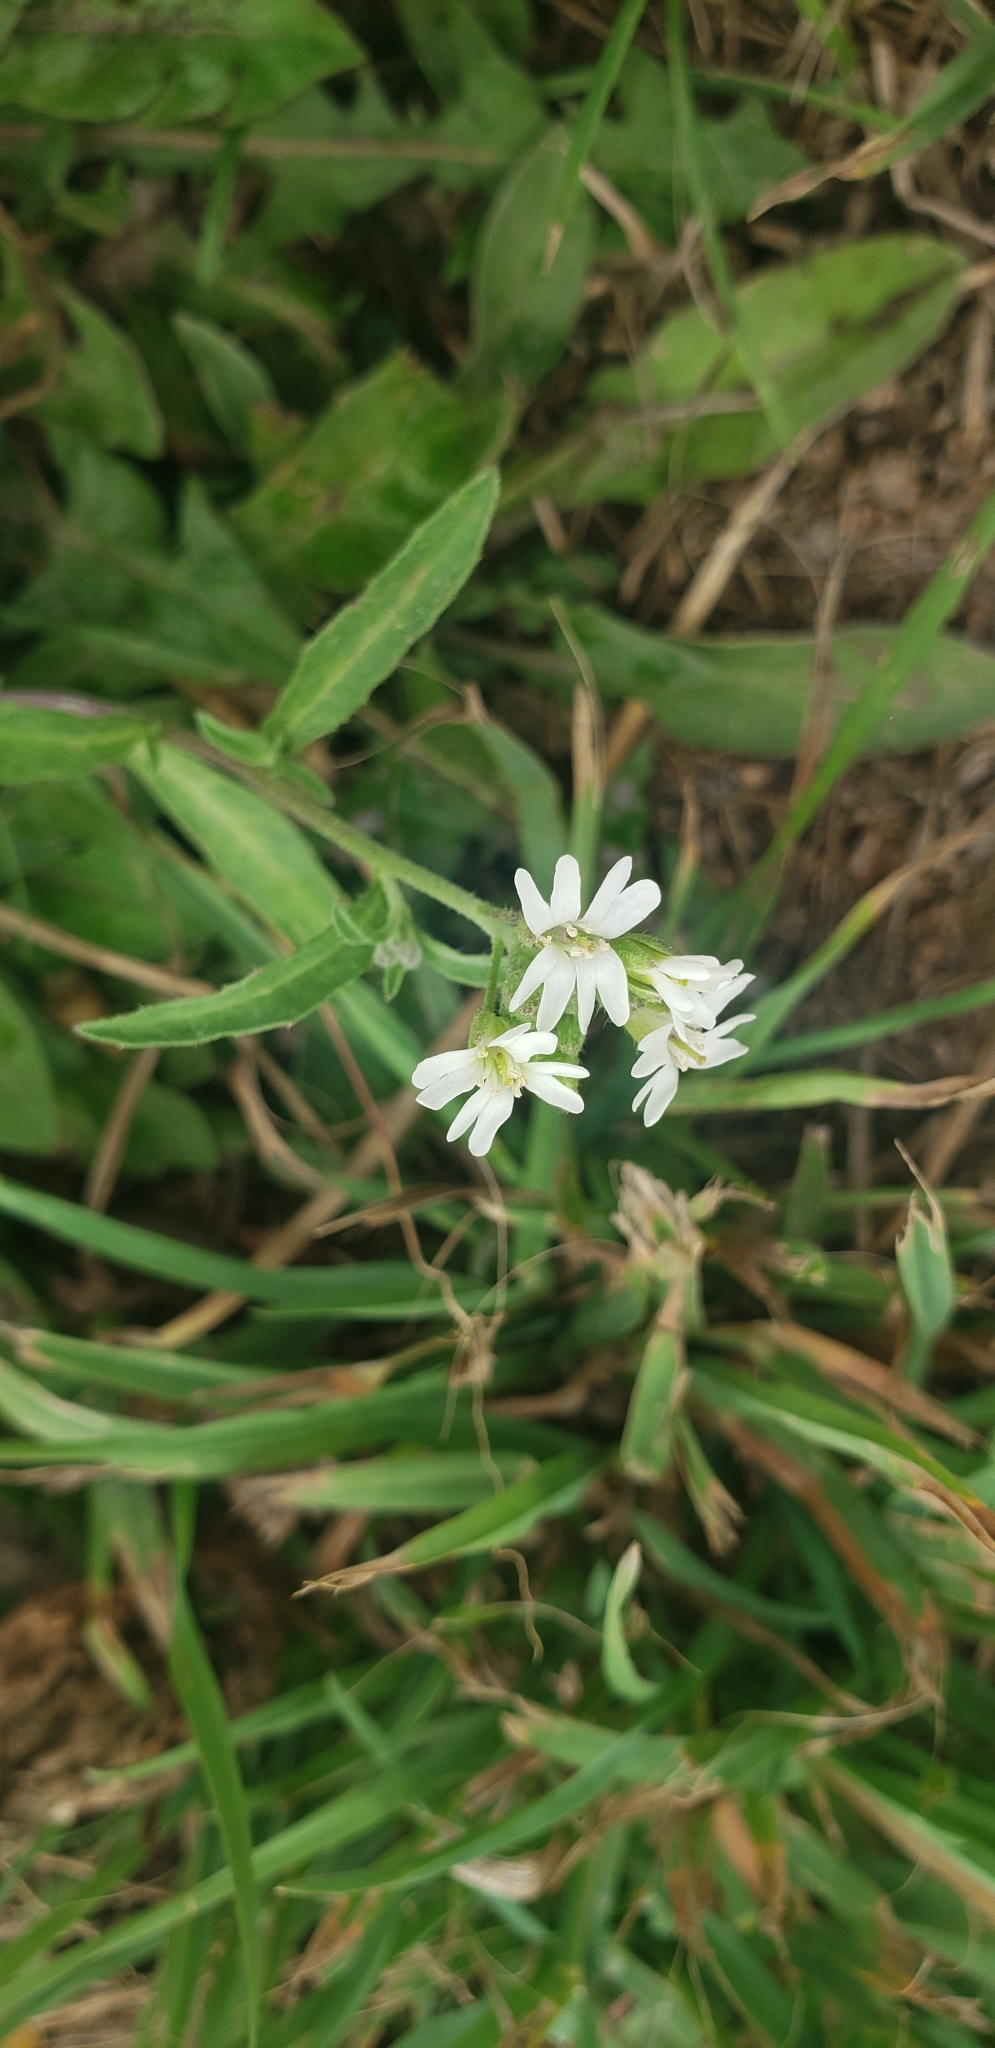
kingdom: Plantae
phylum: Tracheophyta
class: Magnoliopsida
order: Brassicales
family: Brassicaceae
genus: Berteroa
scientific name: Berteroa incana
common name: Hoary alison
